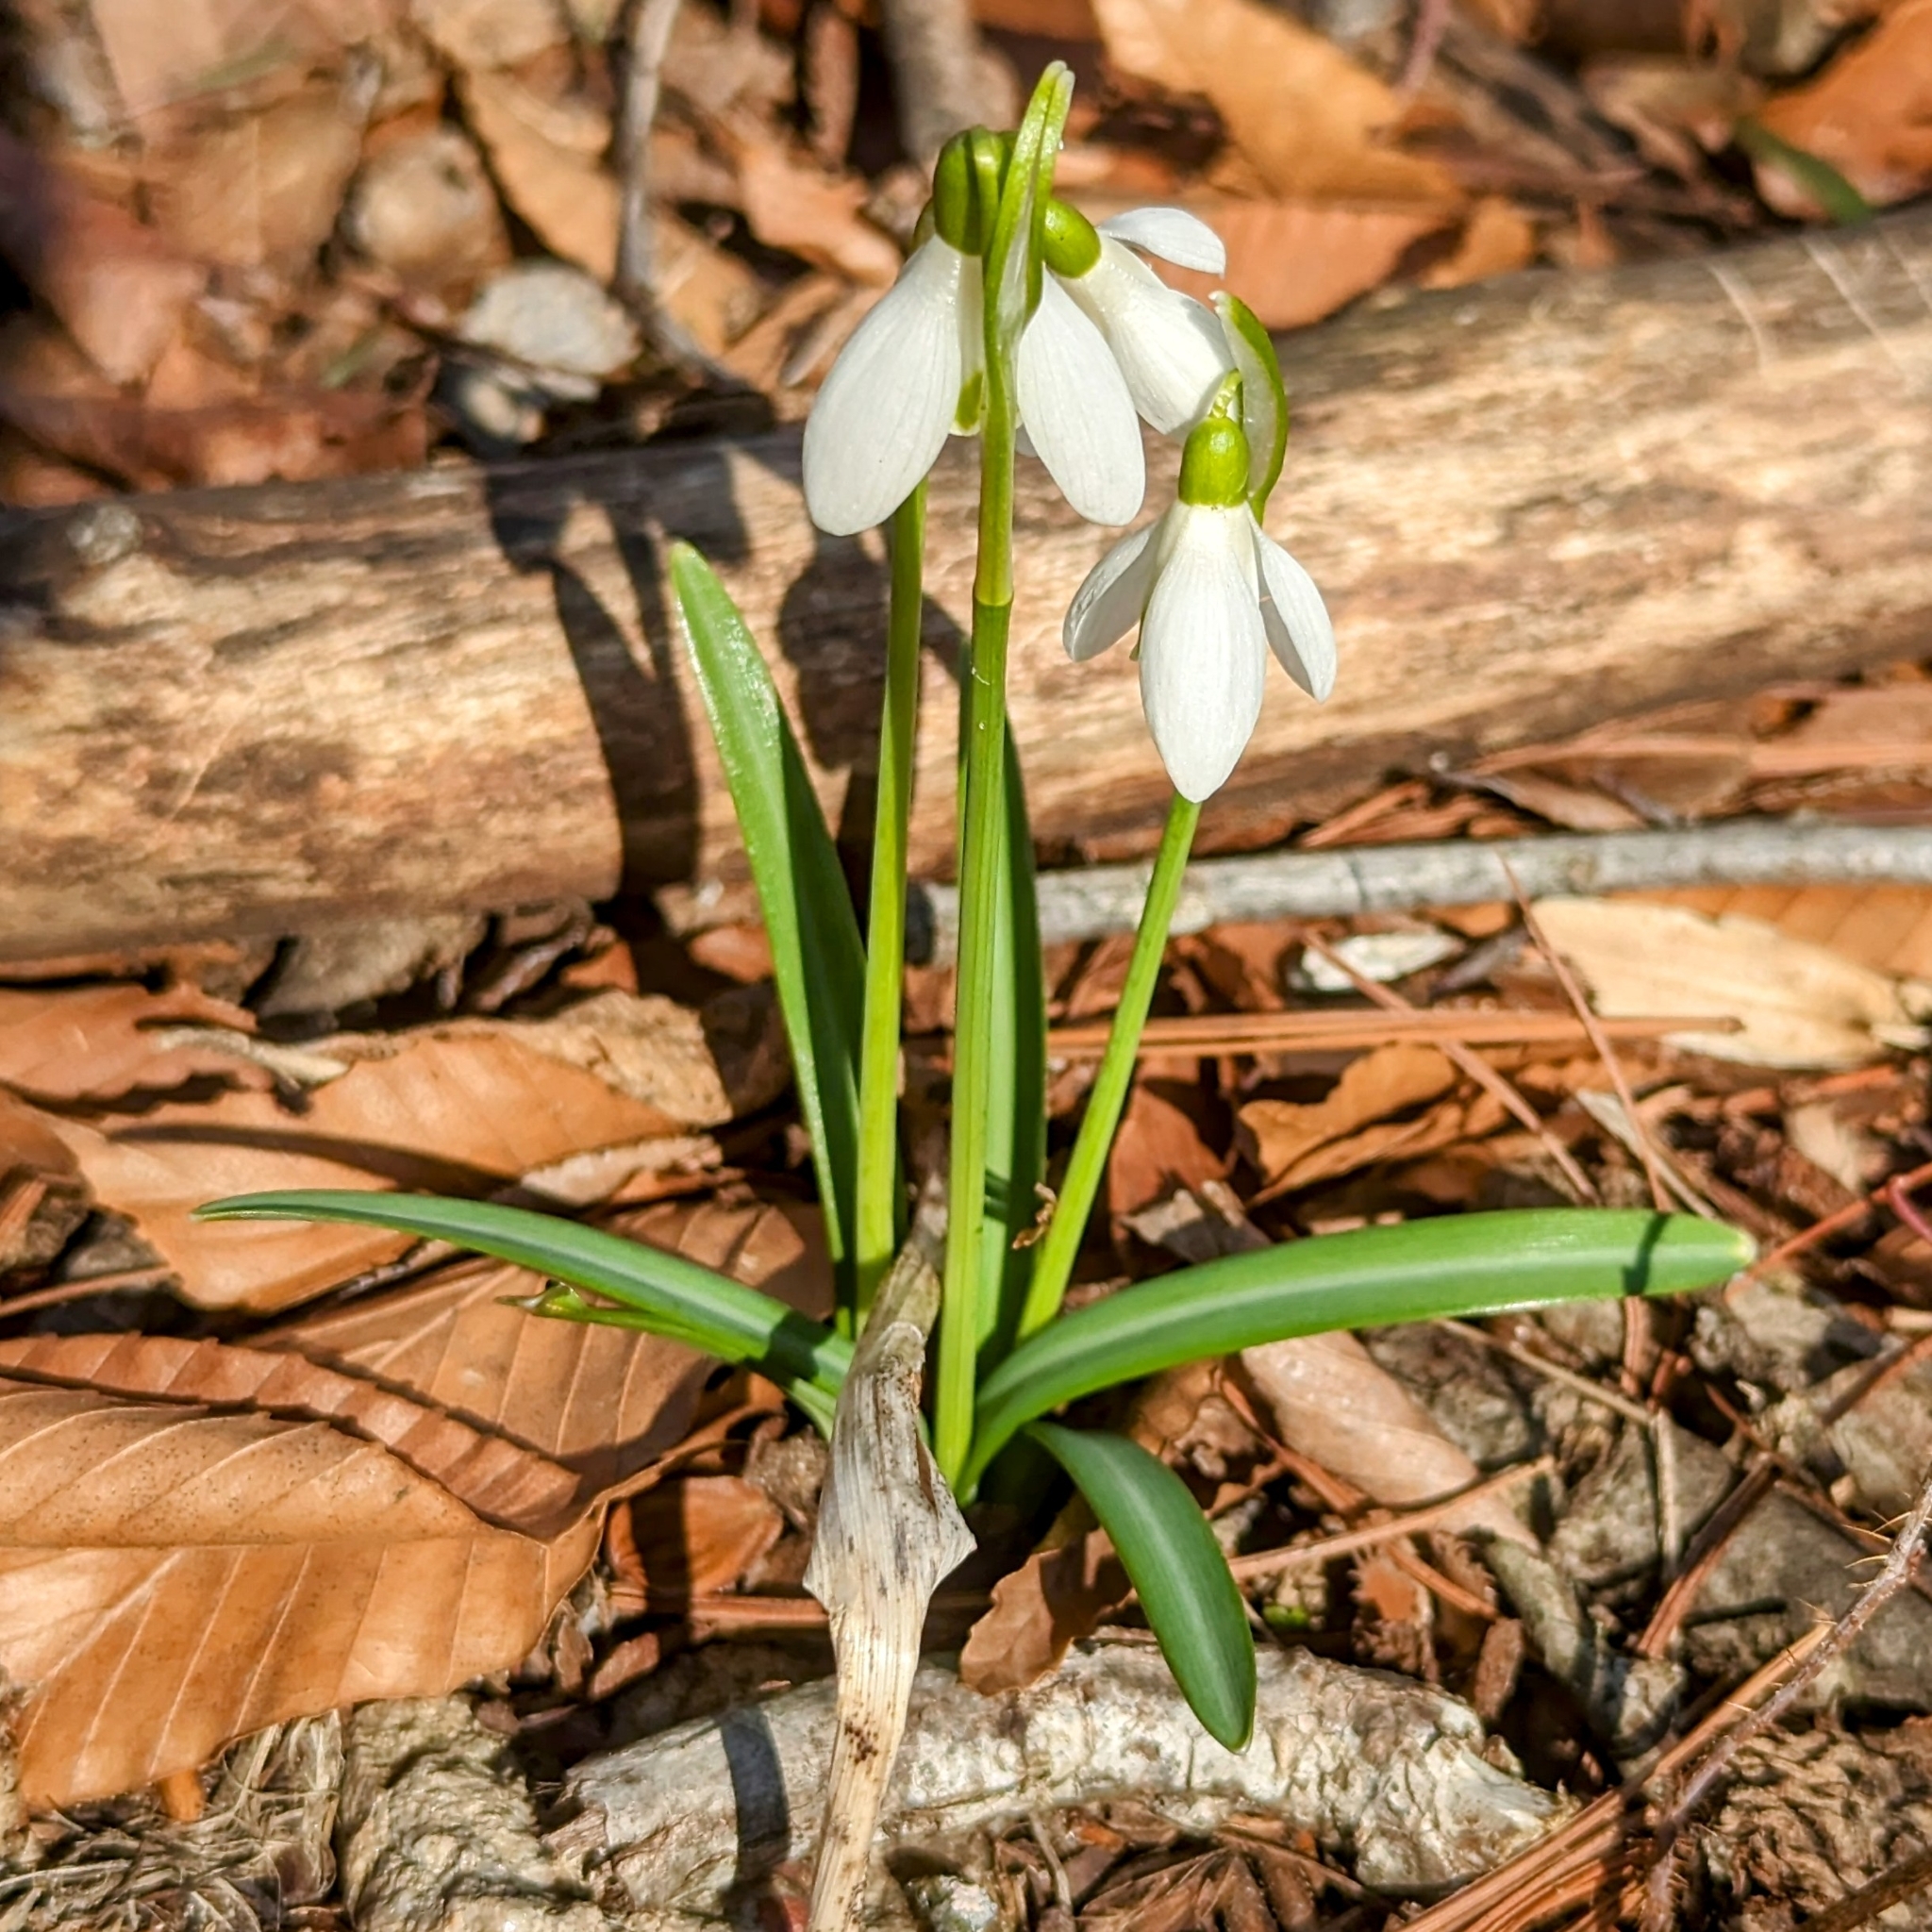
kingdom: Plantae
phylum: Tracheophyta
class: Liliopsida
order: Asparagales
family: Amaryllidaceae
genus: Galanthus
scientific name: Galanthus nivalis
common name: Snowdrop
